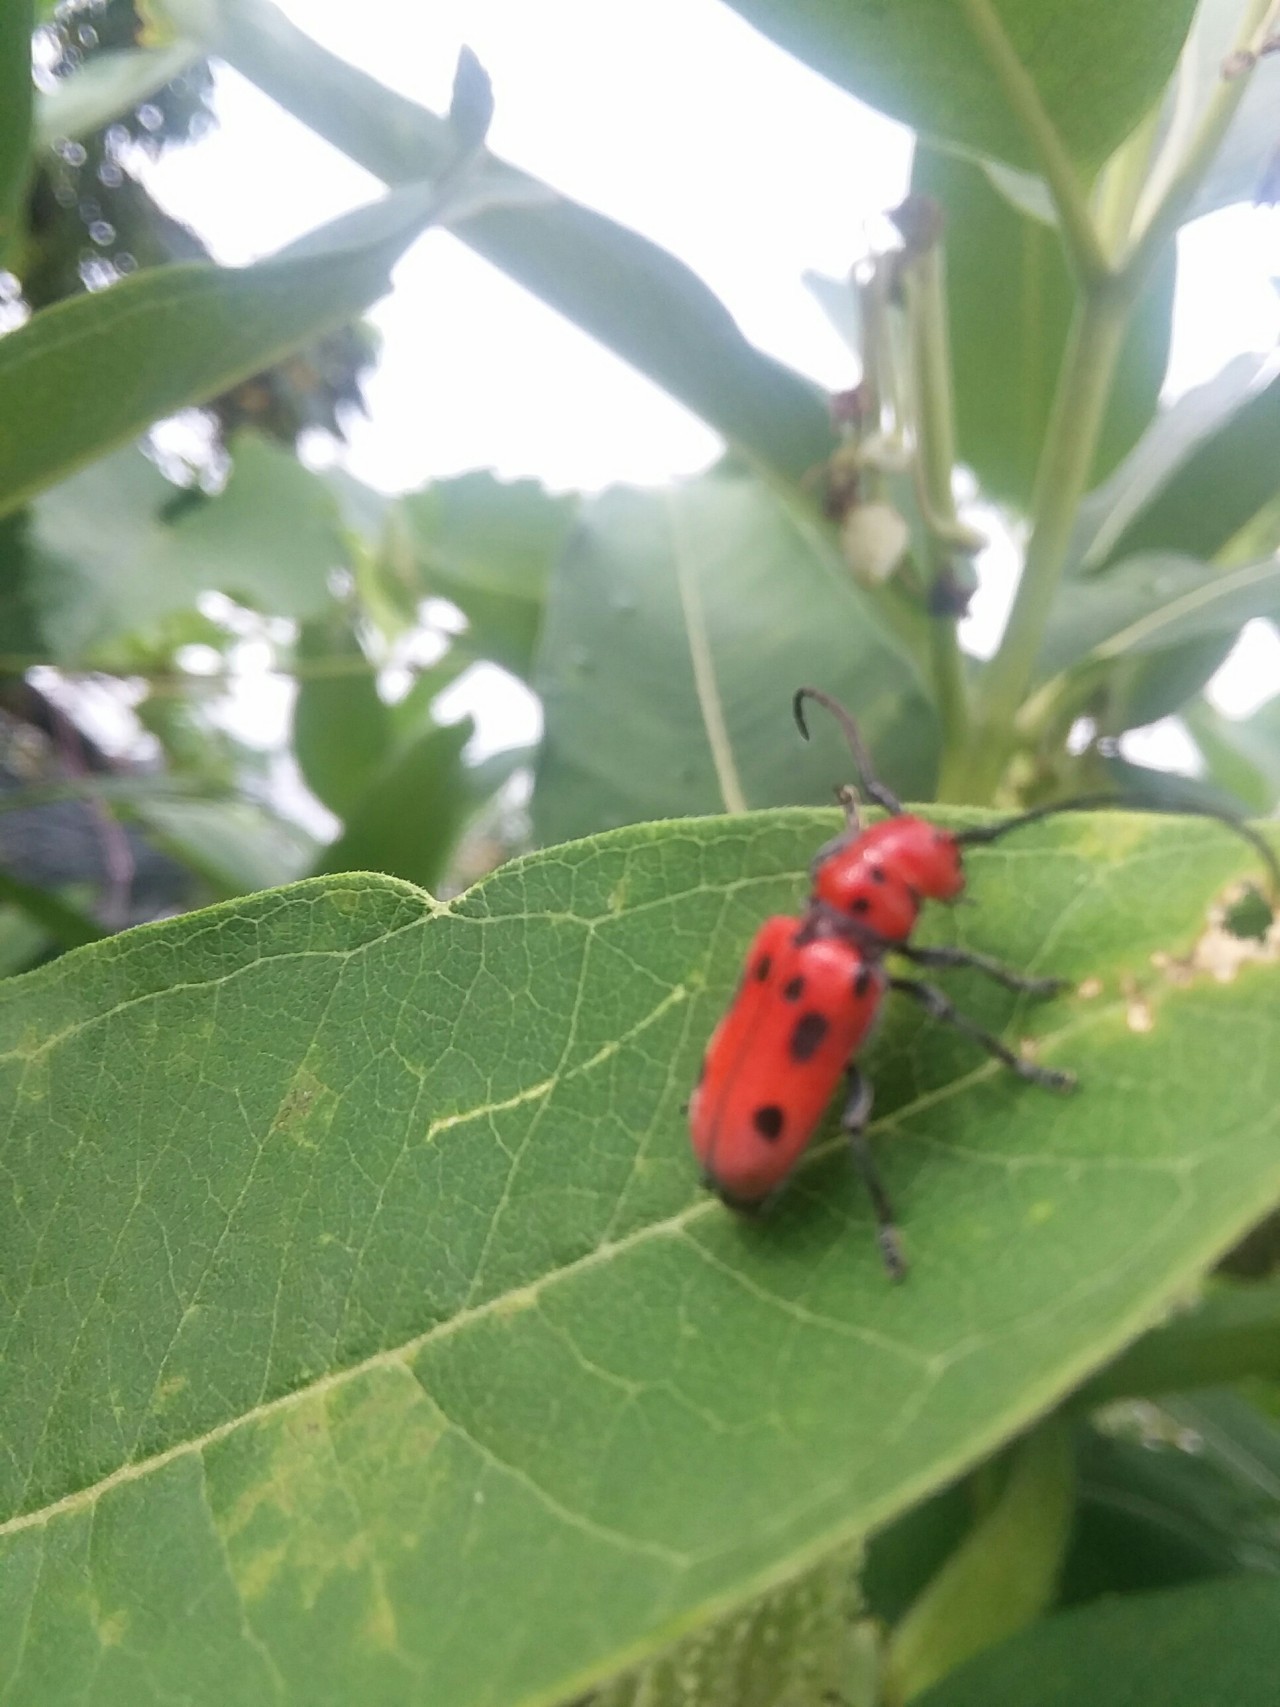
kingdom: Animalia
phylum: Arthropoda
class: Insecta
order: Coleoptera
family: Cerambycidae
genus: Tetraopes
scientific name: Tetraopes tetrophthalmus
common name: Red milkweed beetle
